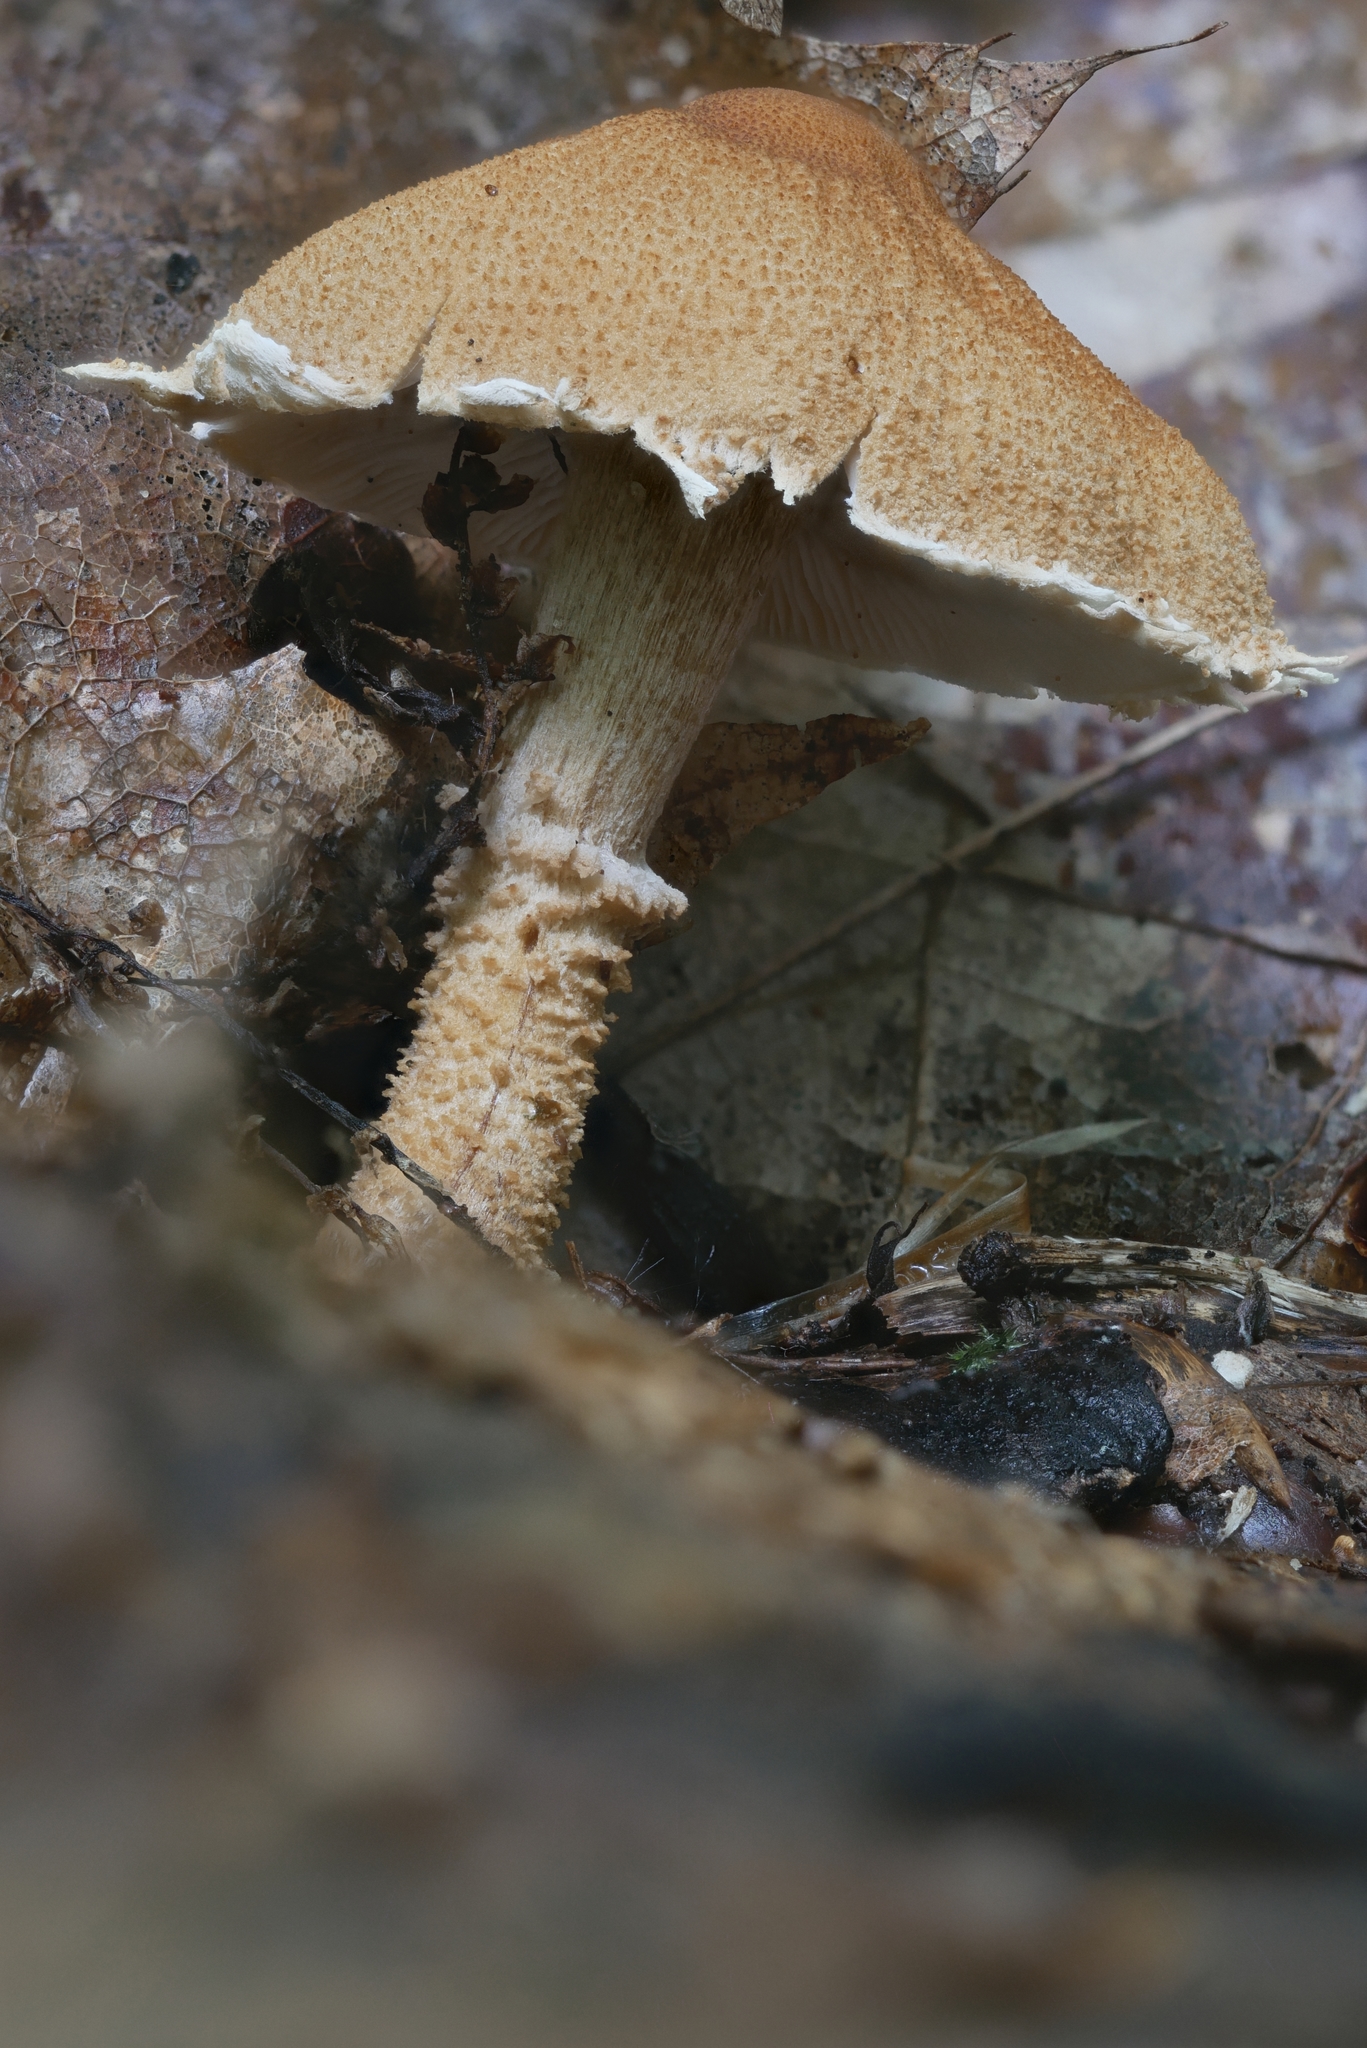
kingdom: Fungi
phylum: Basidiomycota
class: Agaricomycetes
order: Agaricales
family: Tricholomataceae
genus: Cystoderma
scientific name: Cystoderma amianthinum
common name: Earthy powdercap
